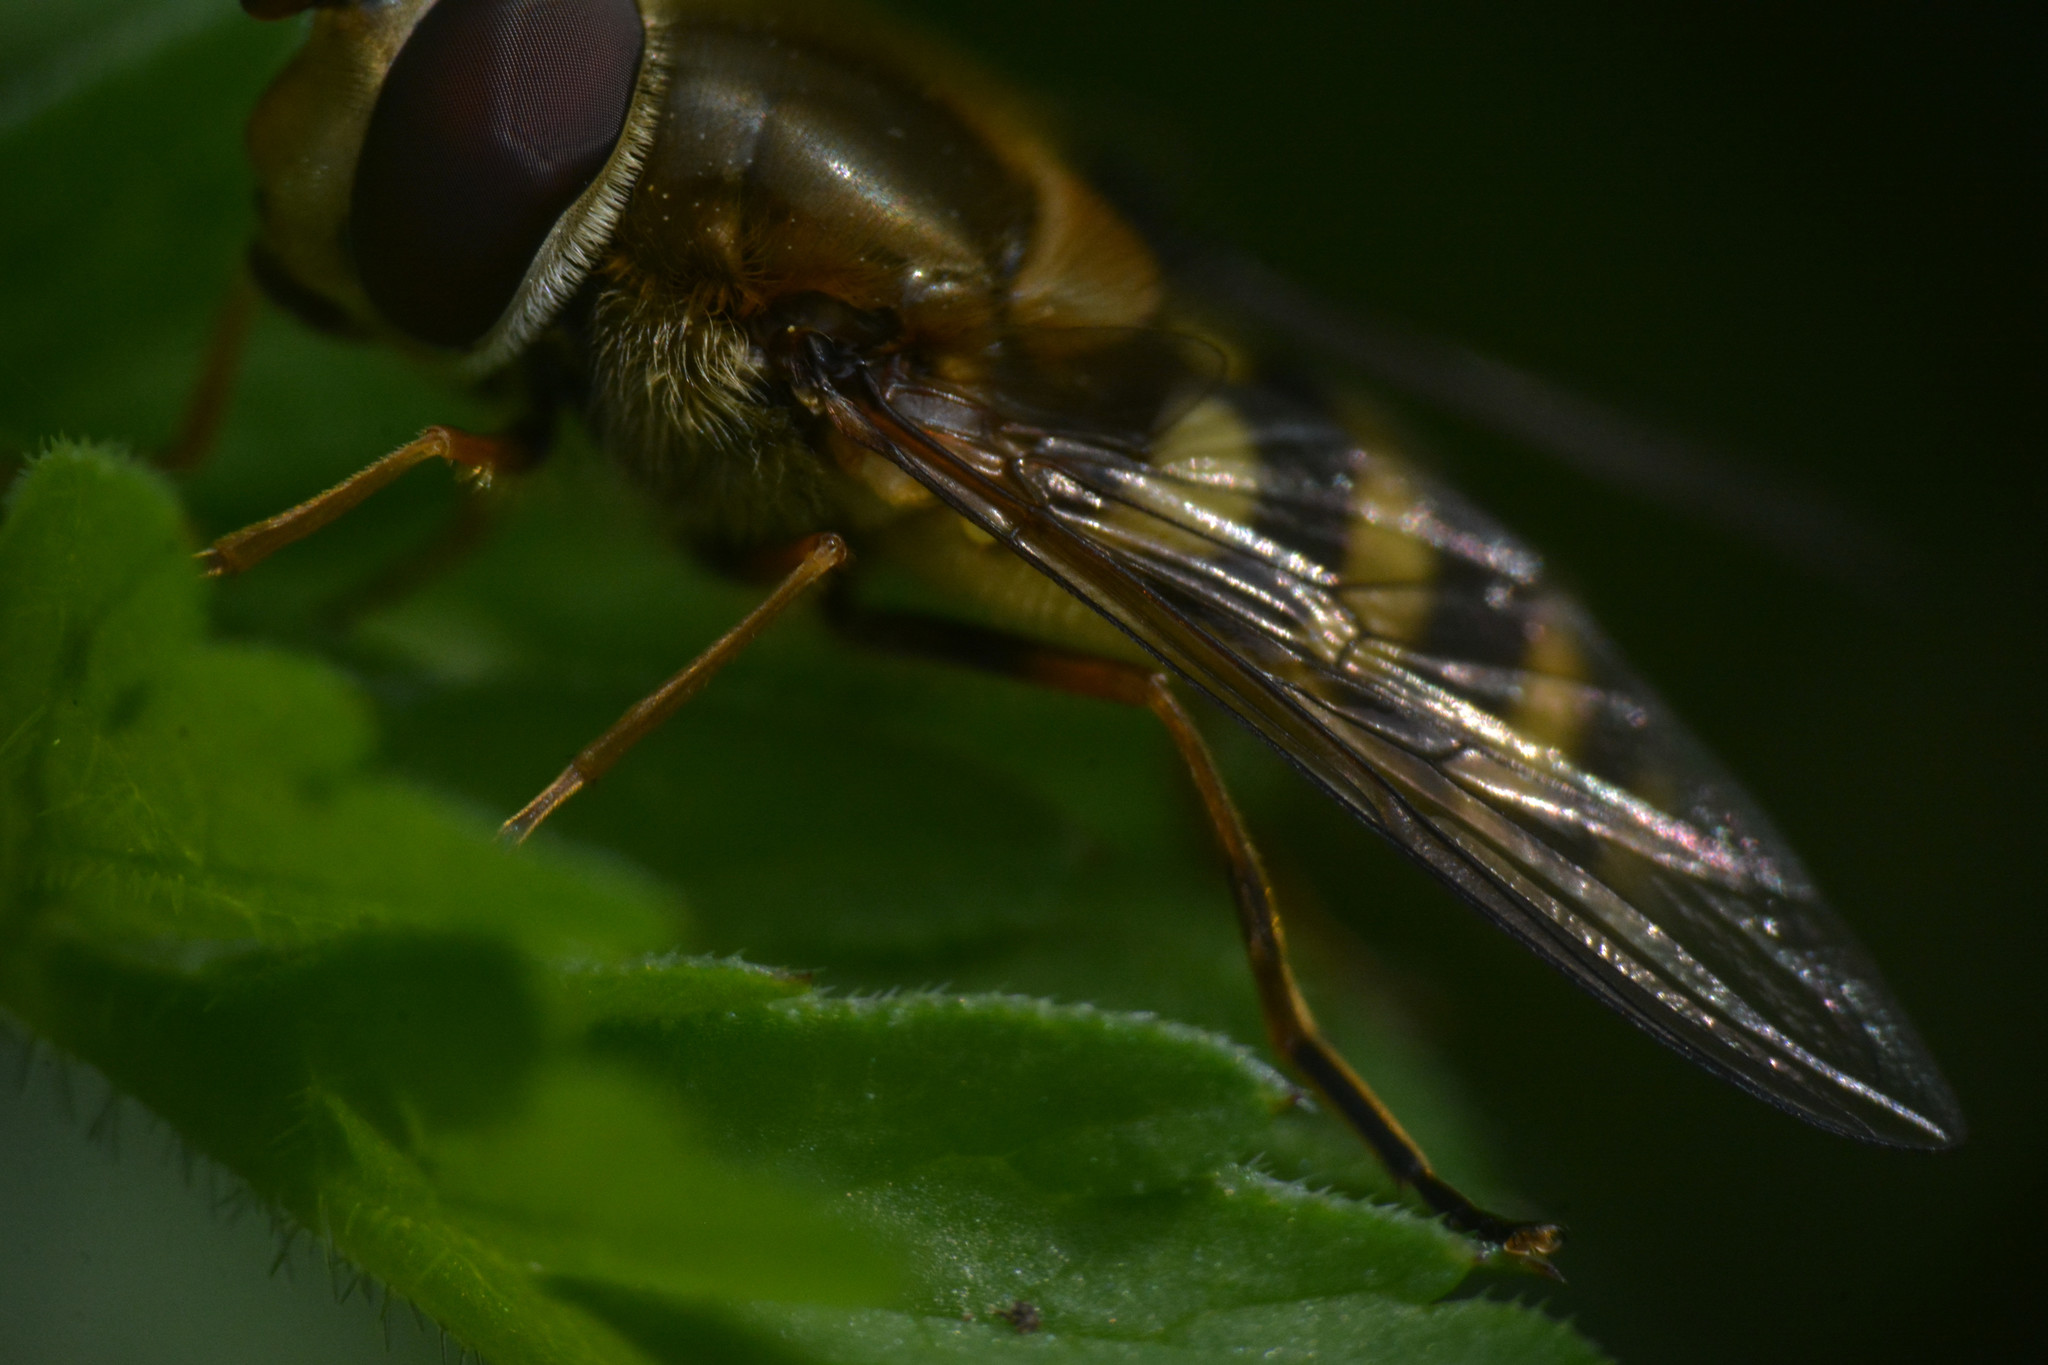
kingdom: Animalia
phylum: Arthropoda
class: Insecta
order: Diptera
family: Syrphidae
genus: Syrphus
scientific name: Syrphus
